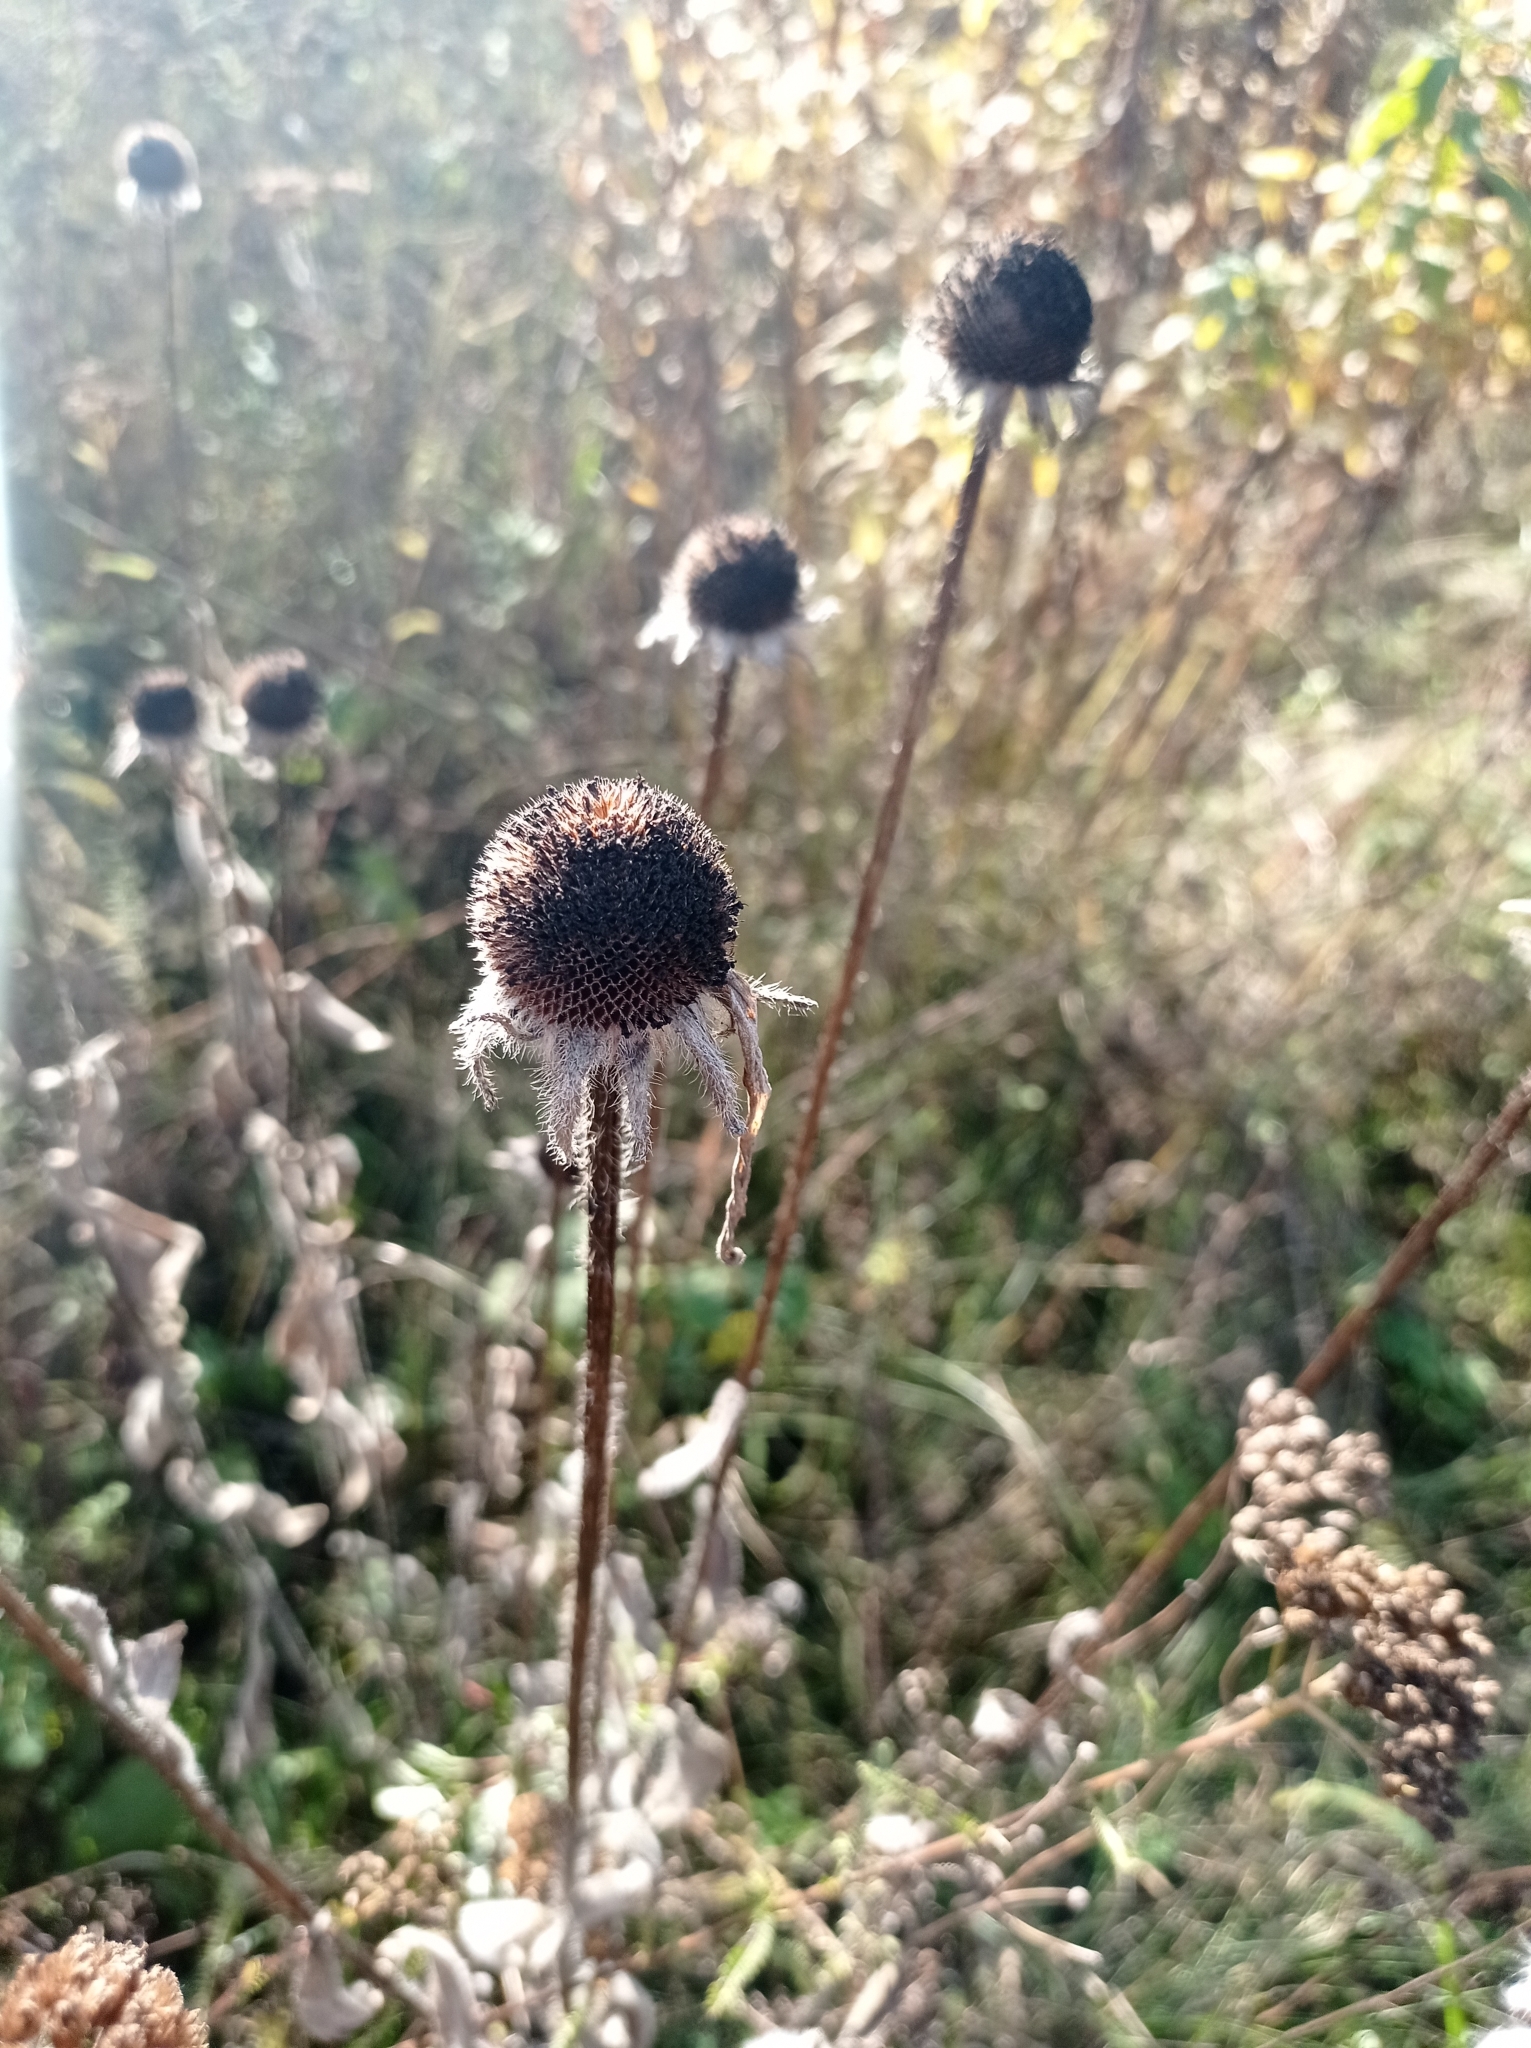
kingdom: Plantae
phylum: Tracheophyta
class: Magnoliopsida
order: Asterales
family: Asteraceae
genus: Rudbeckia
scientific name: Rudbeckia hirta
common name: Black-eyed-susan
